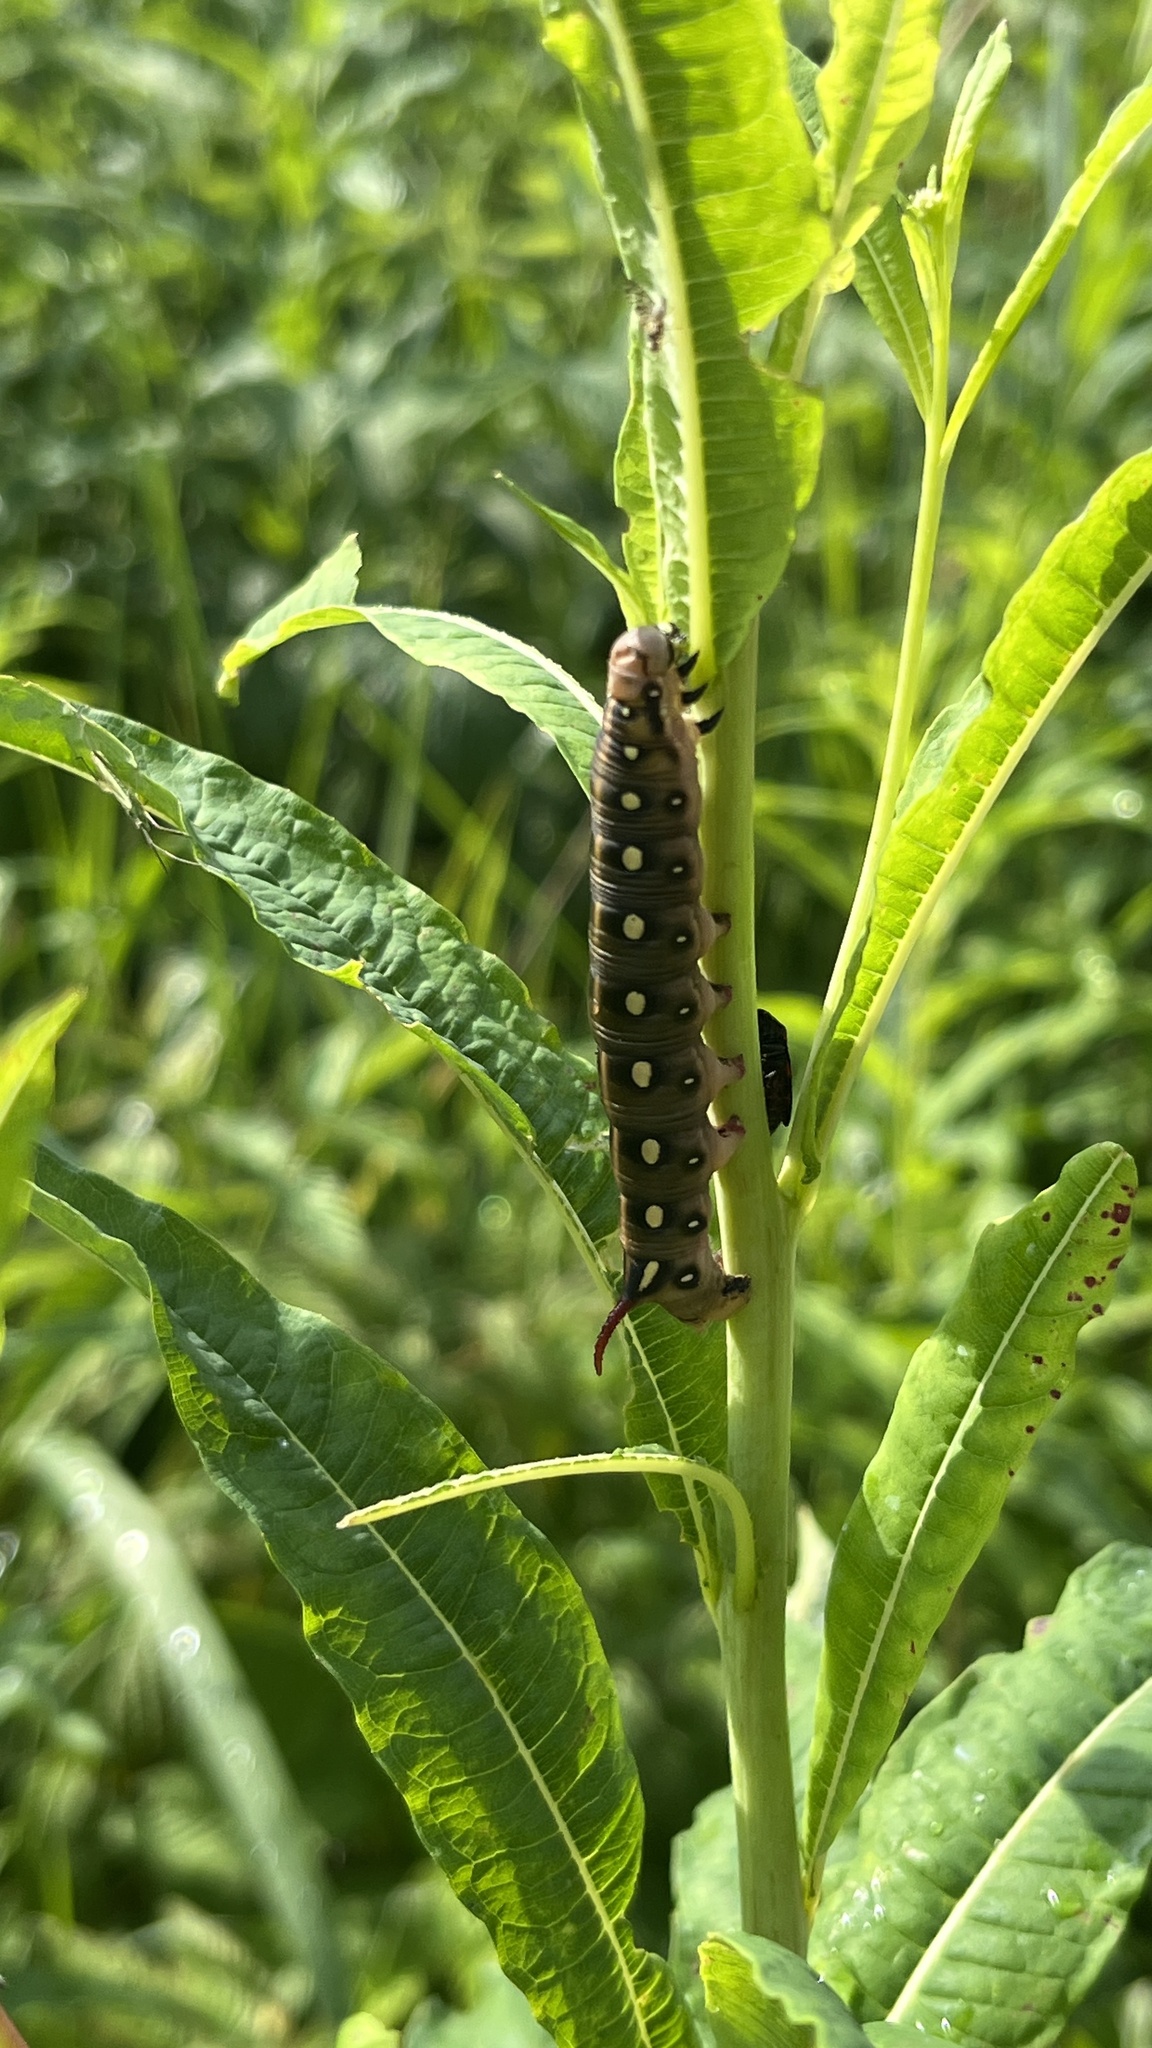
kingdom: Animalia
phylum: Arthropoda
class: Insecta
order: Lepidoptera
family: Sphingidae
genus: Hyles
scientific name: Hyles gallii
